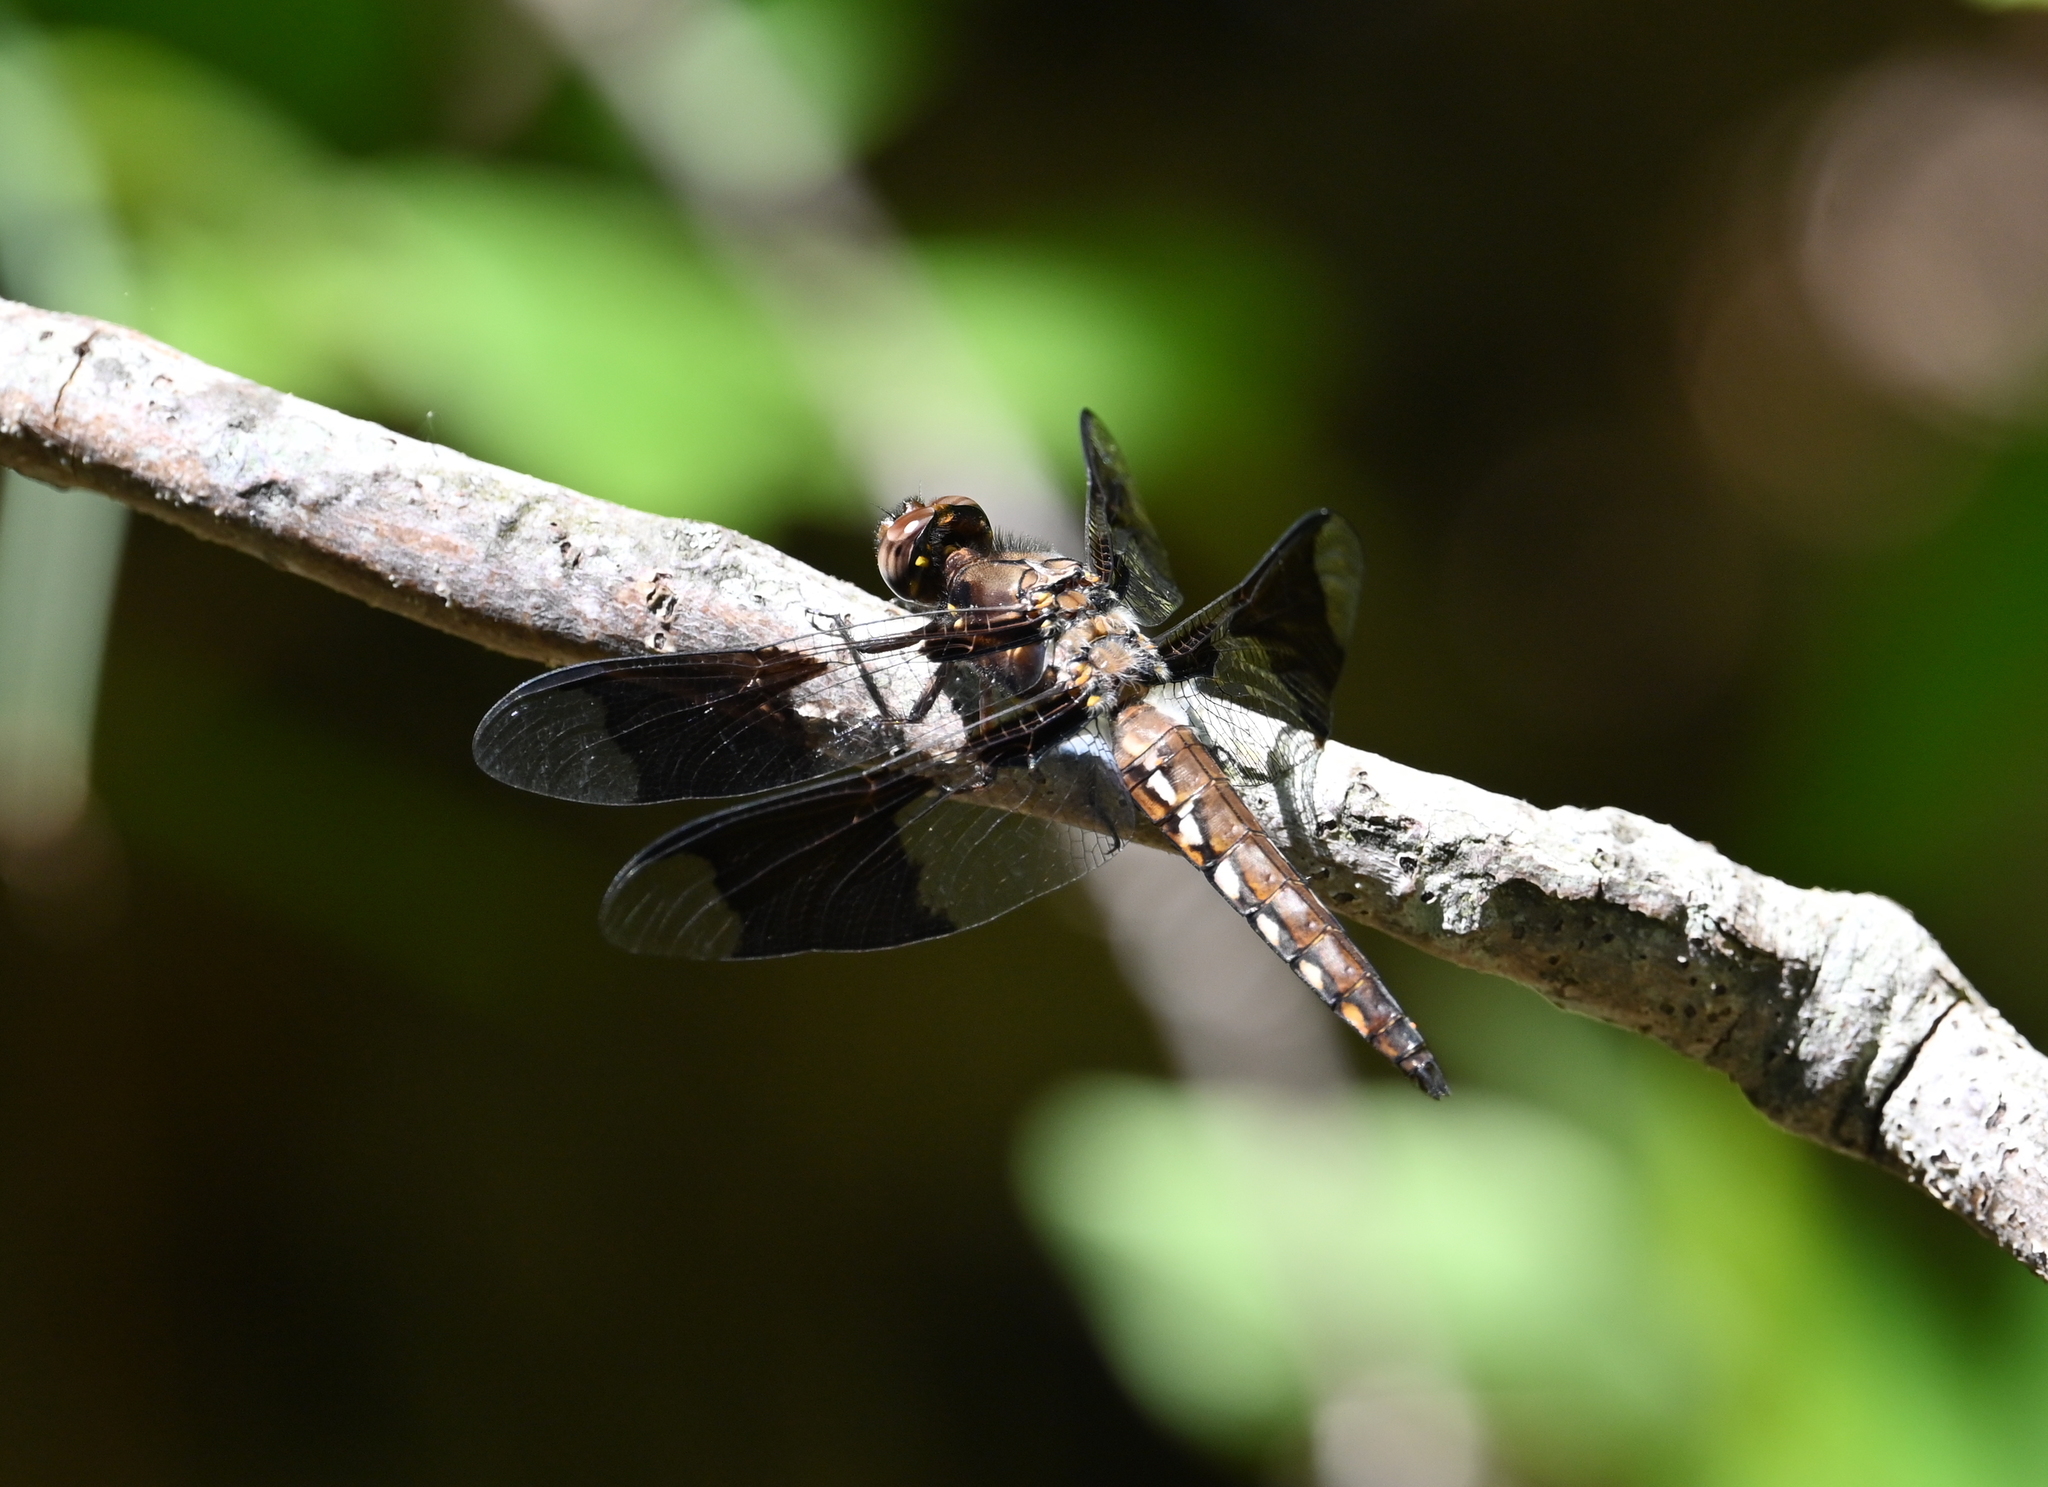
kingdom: Animalia
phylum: Arthropoda
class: Insecta
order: Odonata
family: Libellulidae
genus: Plathemis
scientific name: Plathemis lydia
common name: Common whitetail
